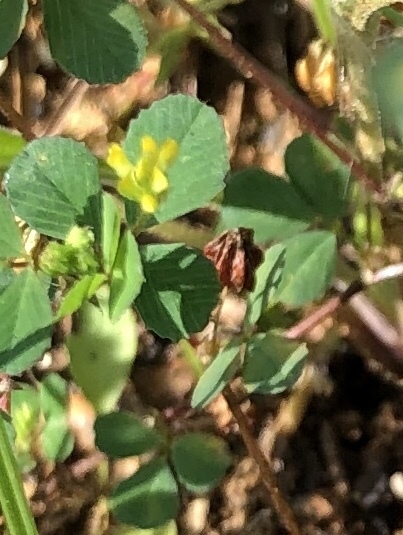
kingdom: Plantae
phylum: Tracheophyta
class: Magnoliopsida
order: Fabales
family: Fabaceae
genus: Trifolium
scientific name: Trifolium campestre
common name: Field clover
